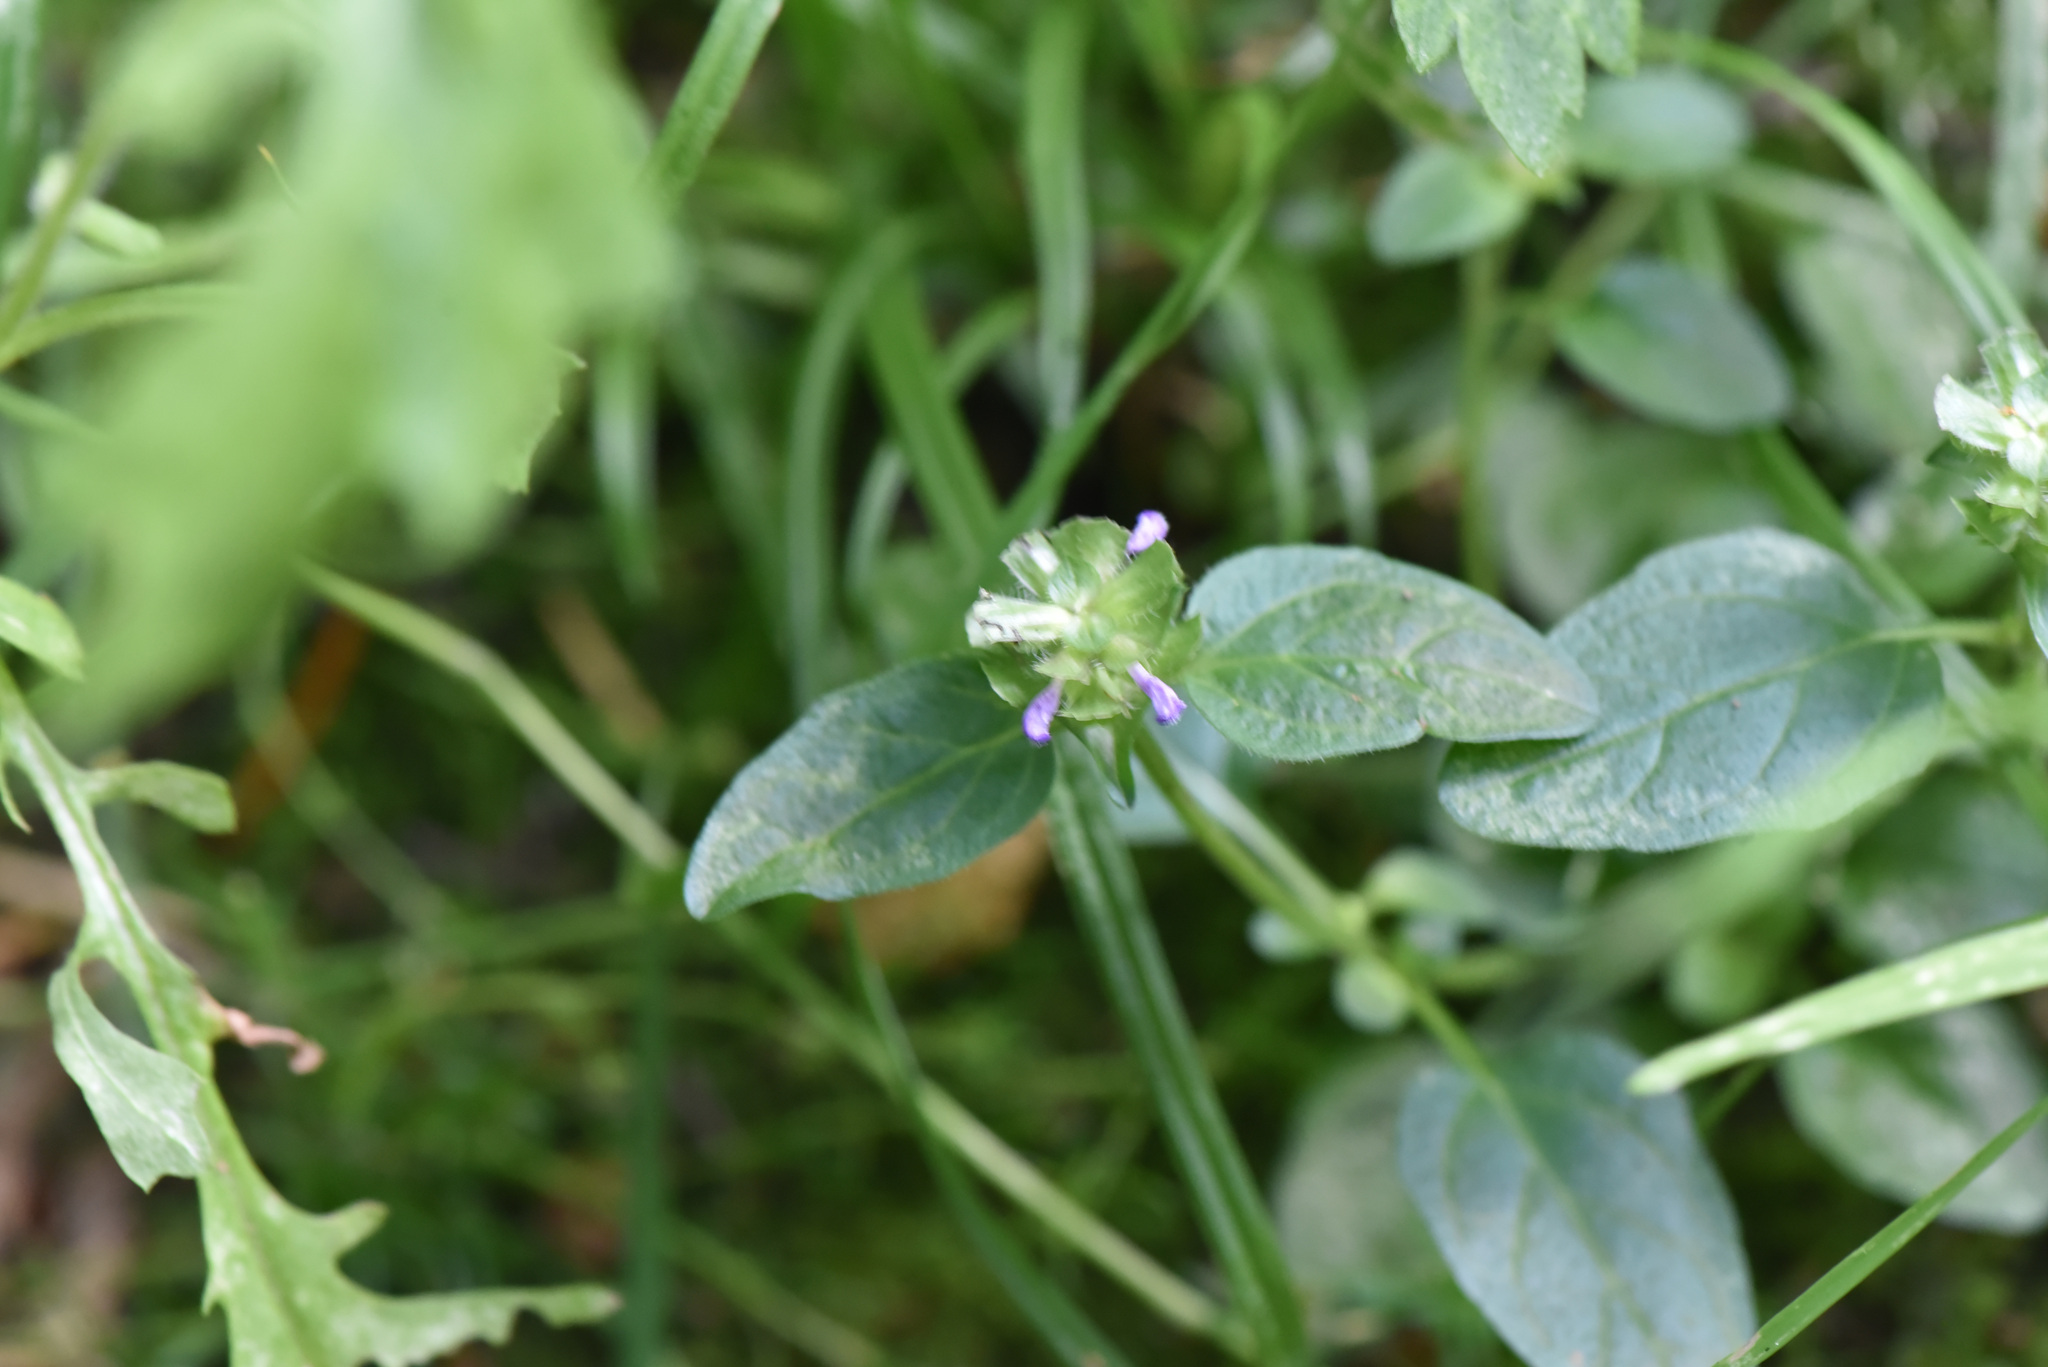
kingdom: Plantae
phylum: Tracheophyta
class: Magnoliopsida
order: Lamiales
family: Lamiaceae
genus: Prunella
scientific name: Prunella vulgaris
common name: Heal-all
